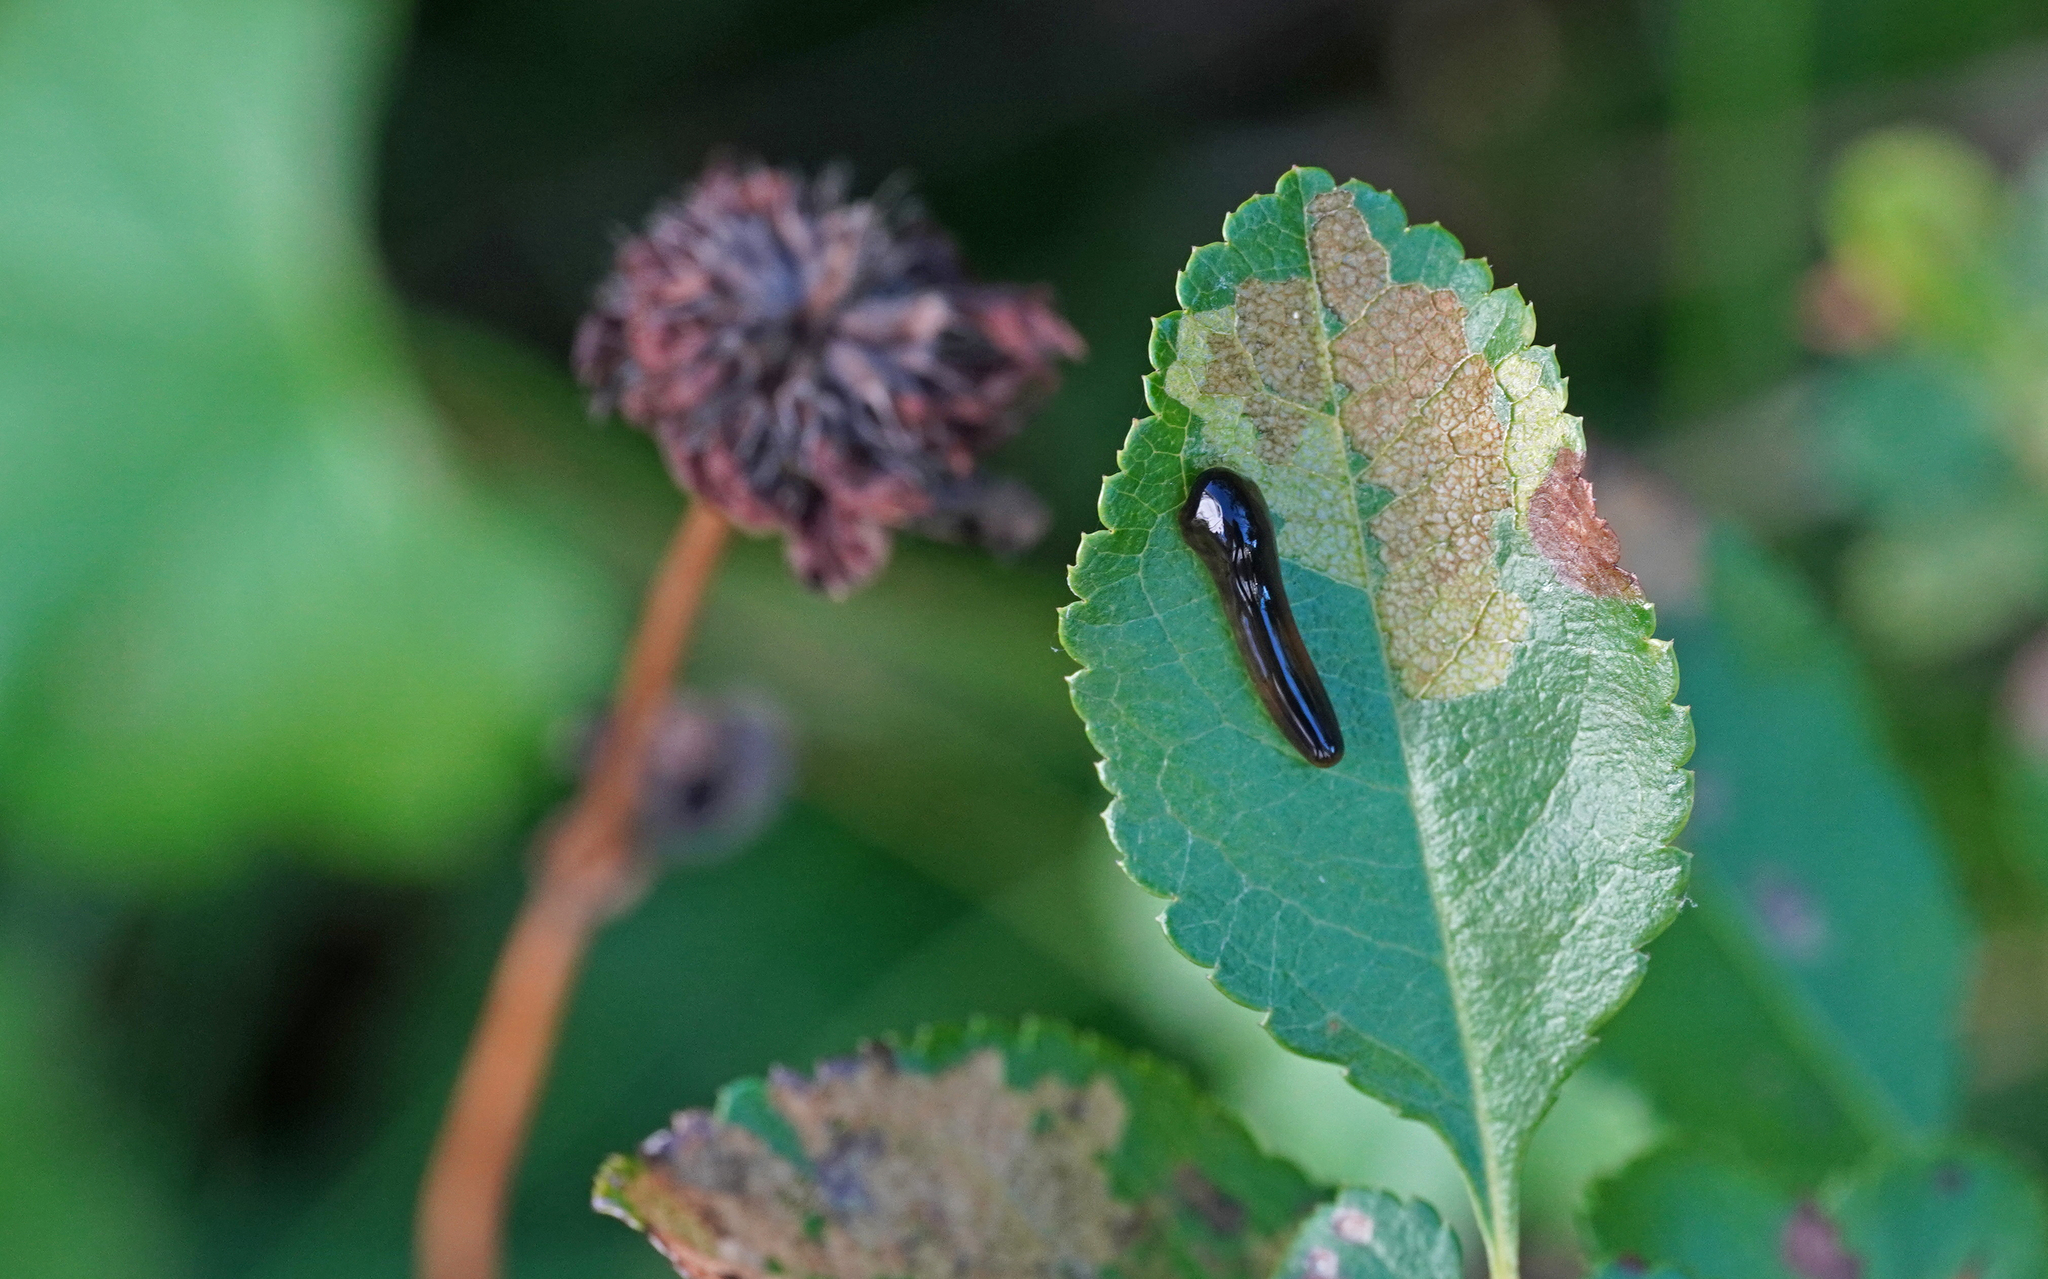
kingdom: Animalia
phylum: Arthropoda
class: Insecta
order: Hymenoptera
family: Tenthredinidae
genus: Caliroa
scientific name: Caliroa cerasi
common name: Pear sawfly
